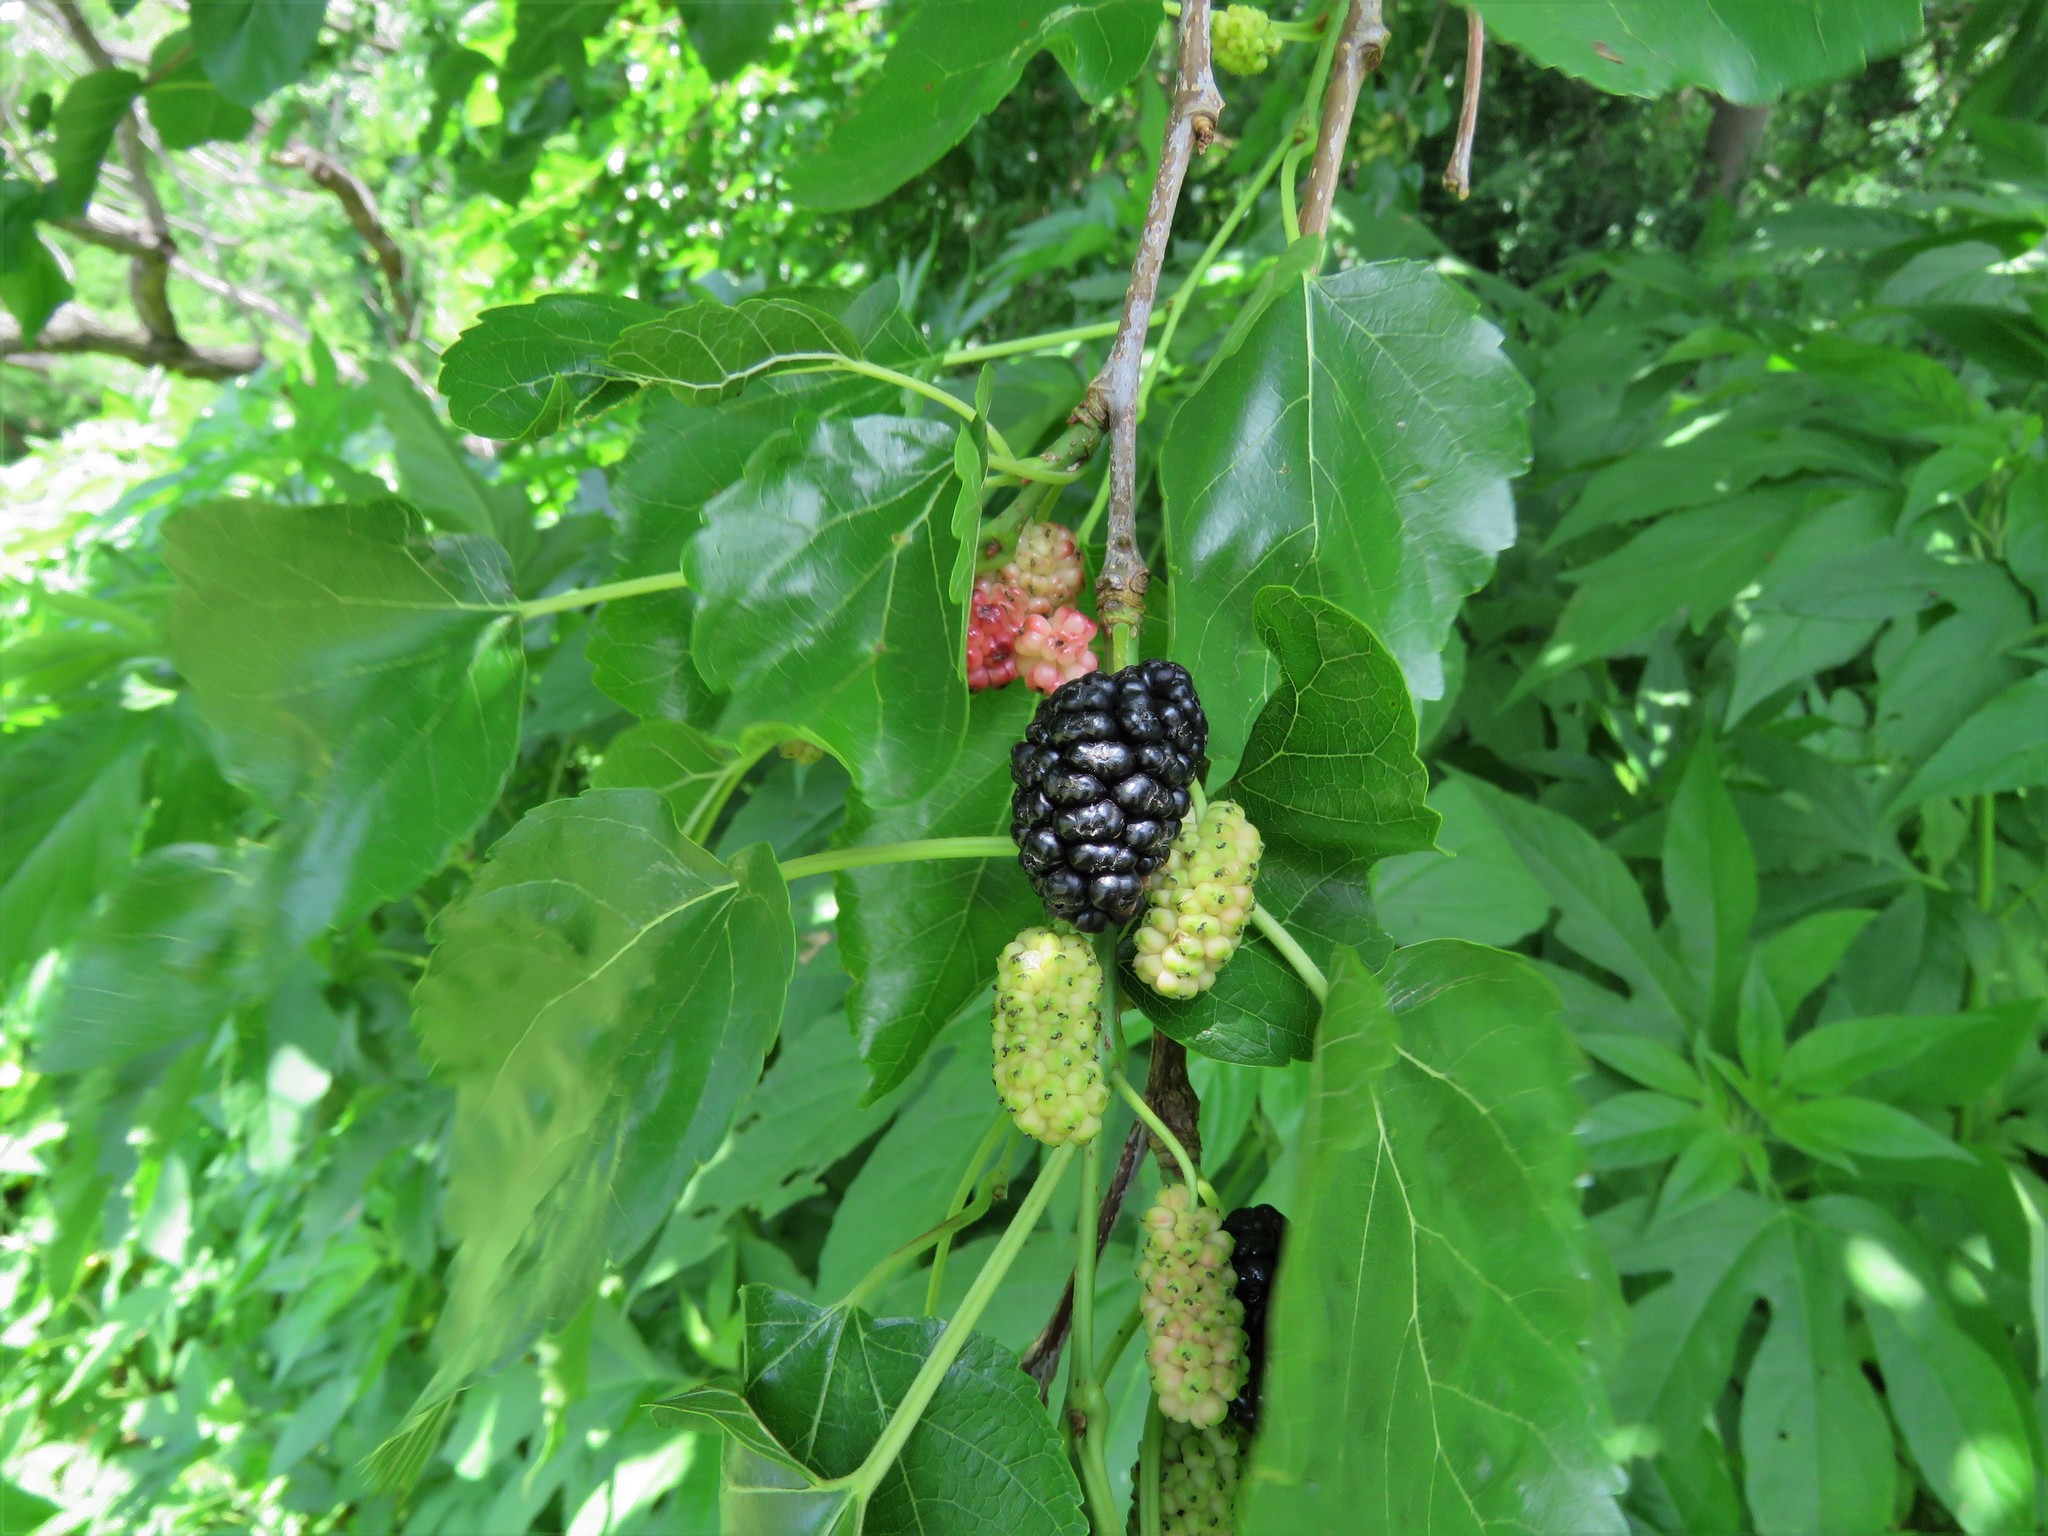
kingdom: Plantae
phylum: Tracheophyta
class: Magnoliopsida
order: Rosales
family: Moraceae
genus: Morus
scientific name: Morus alba
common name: White mulberry
